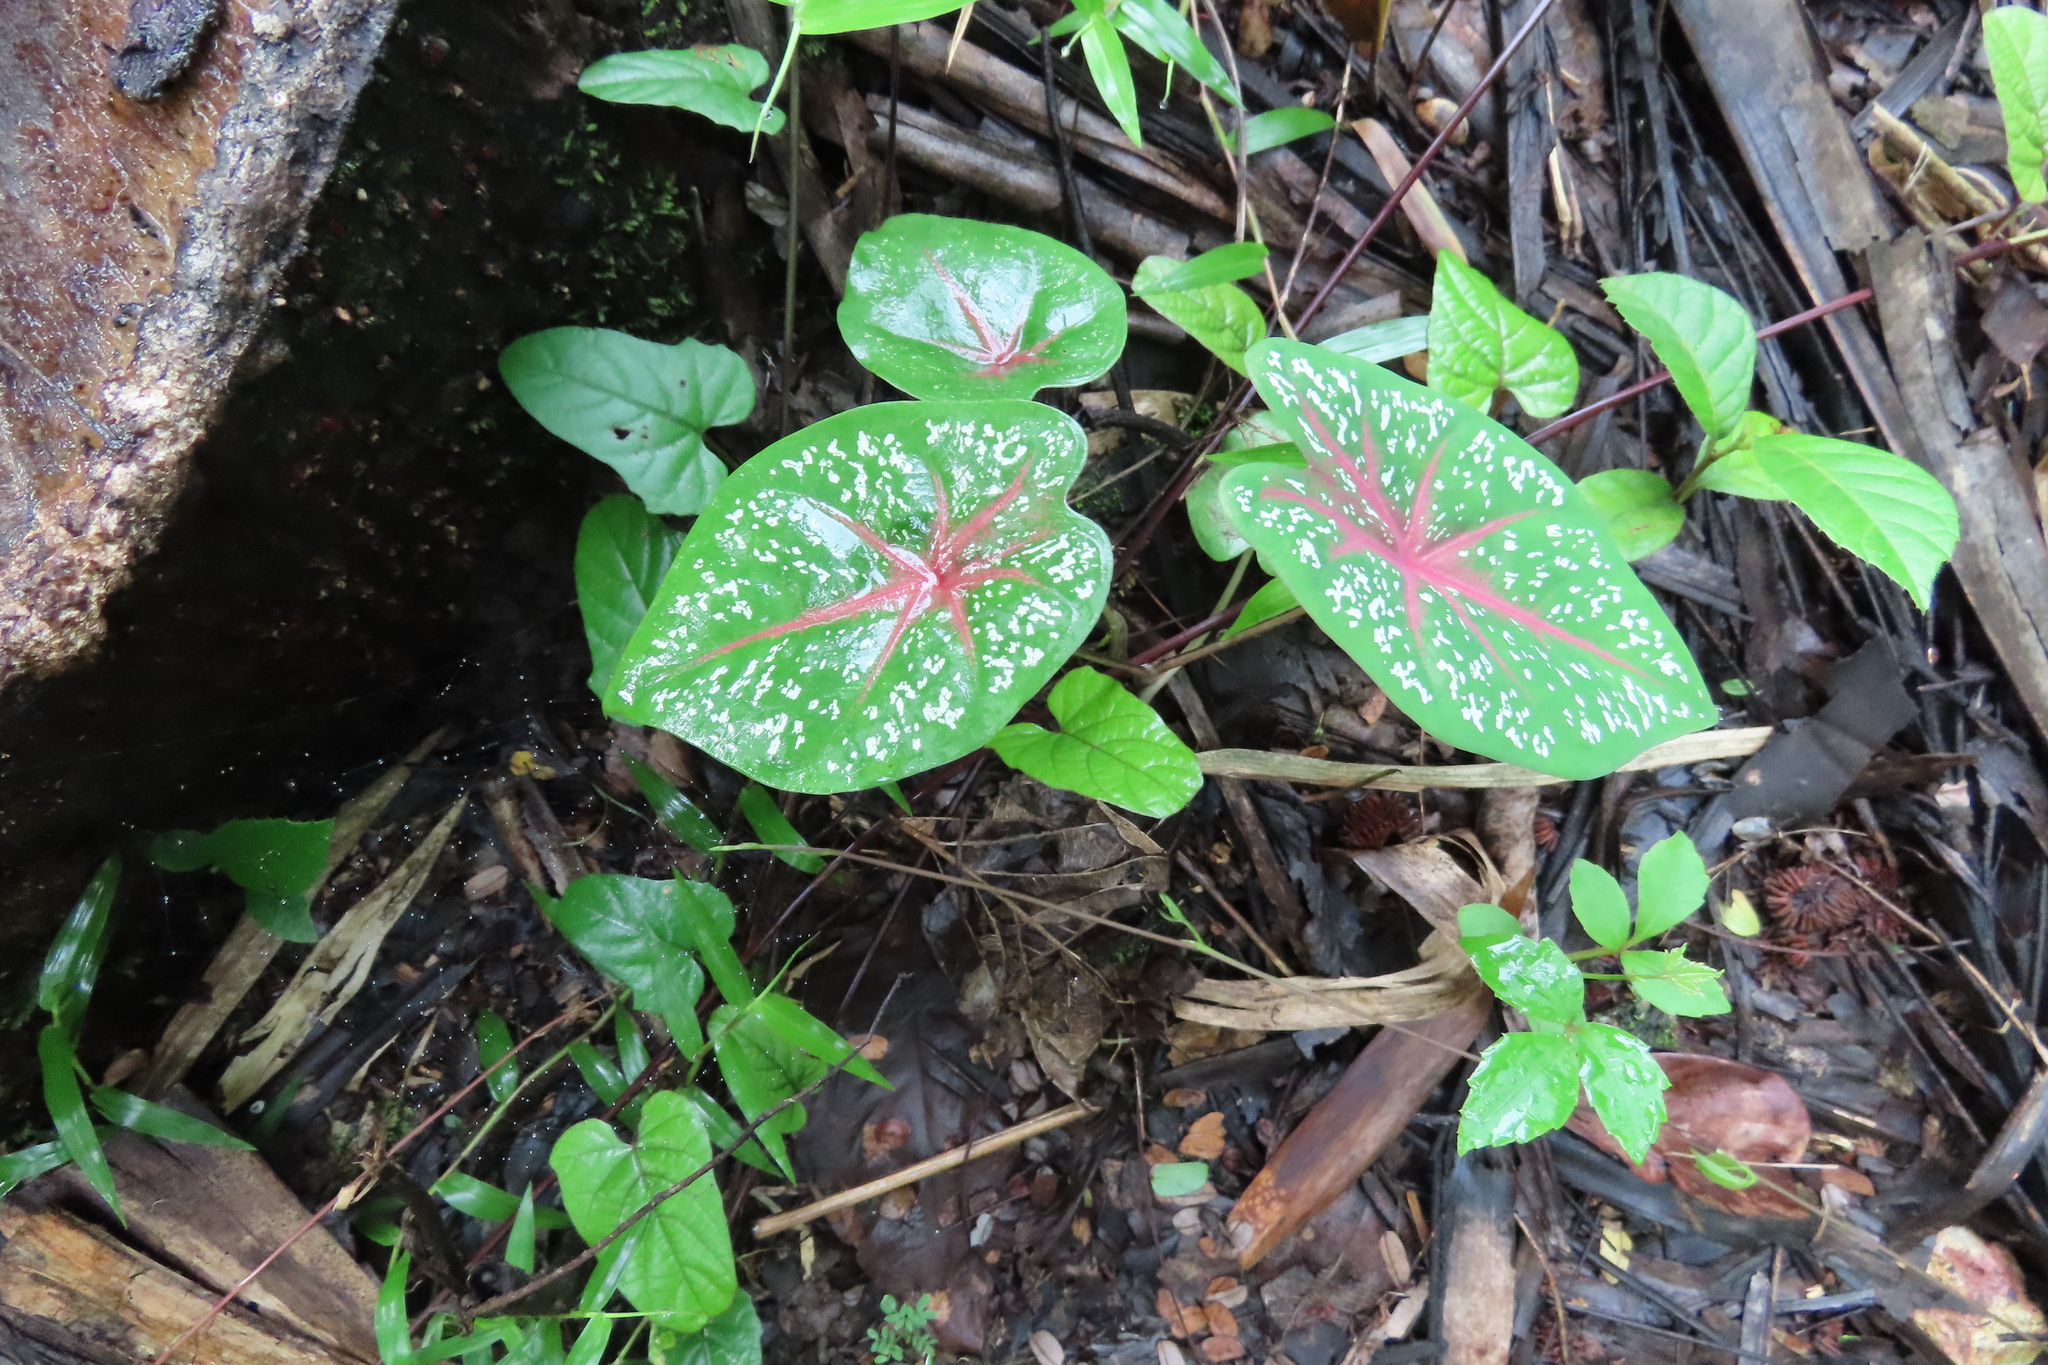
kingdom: Plantae
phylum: Tracheophyta
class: Liliopsida
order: Alismatales
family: Araceae
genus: Caladium
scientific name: Caladium bicolor
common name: Artist's pallet
